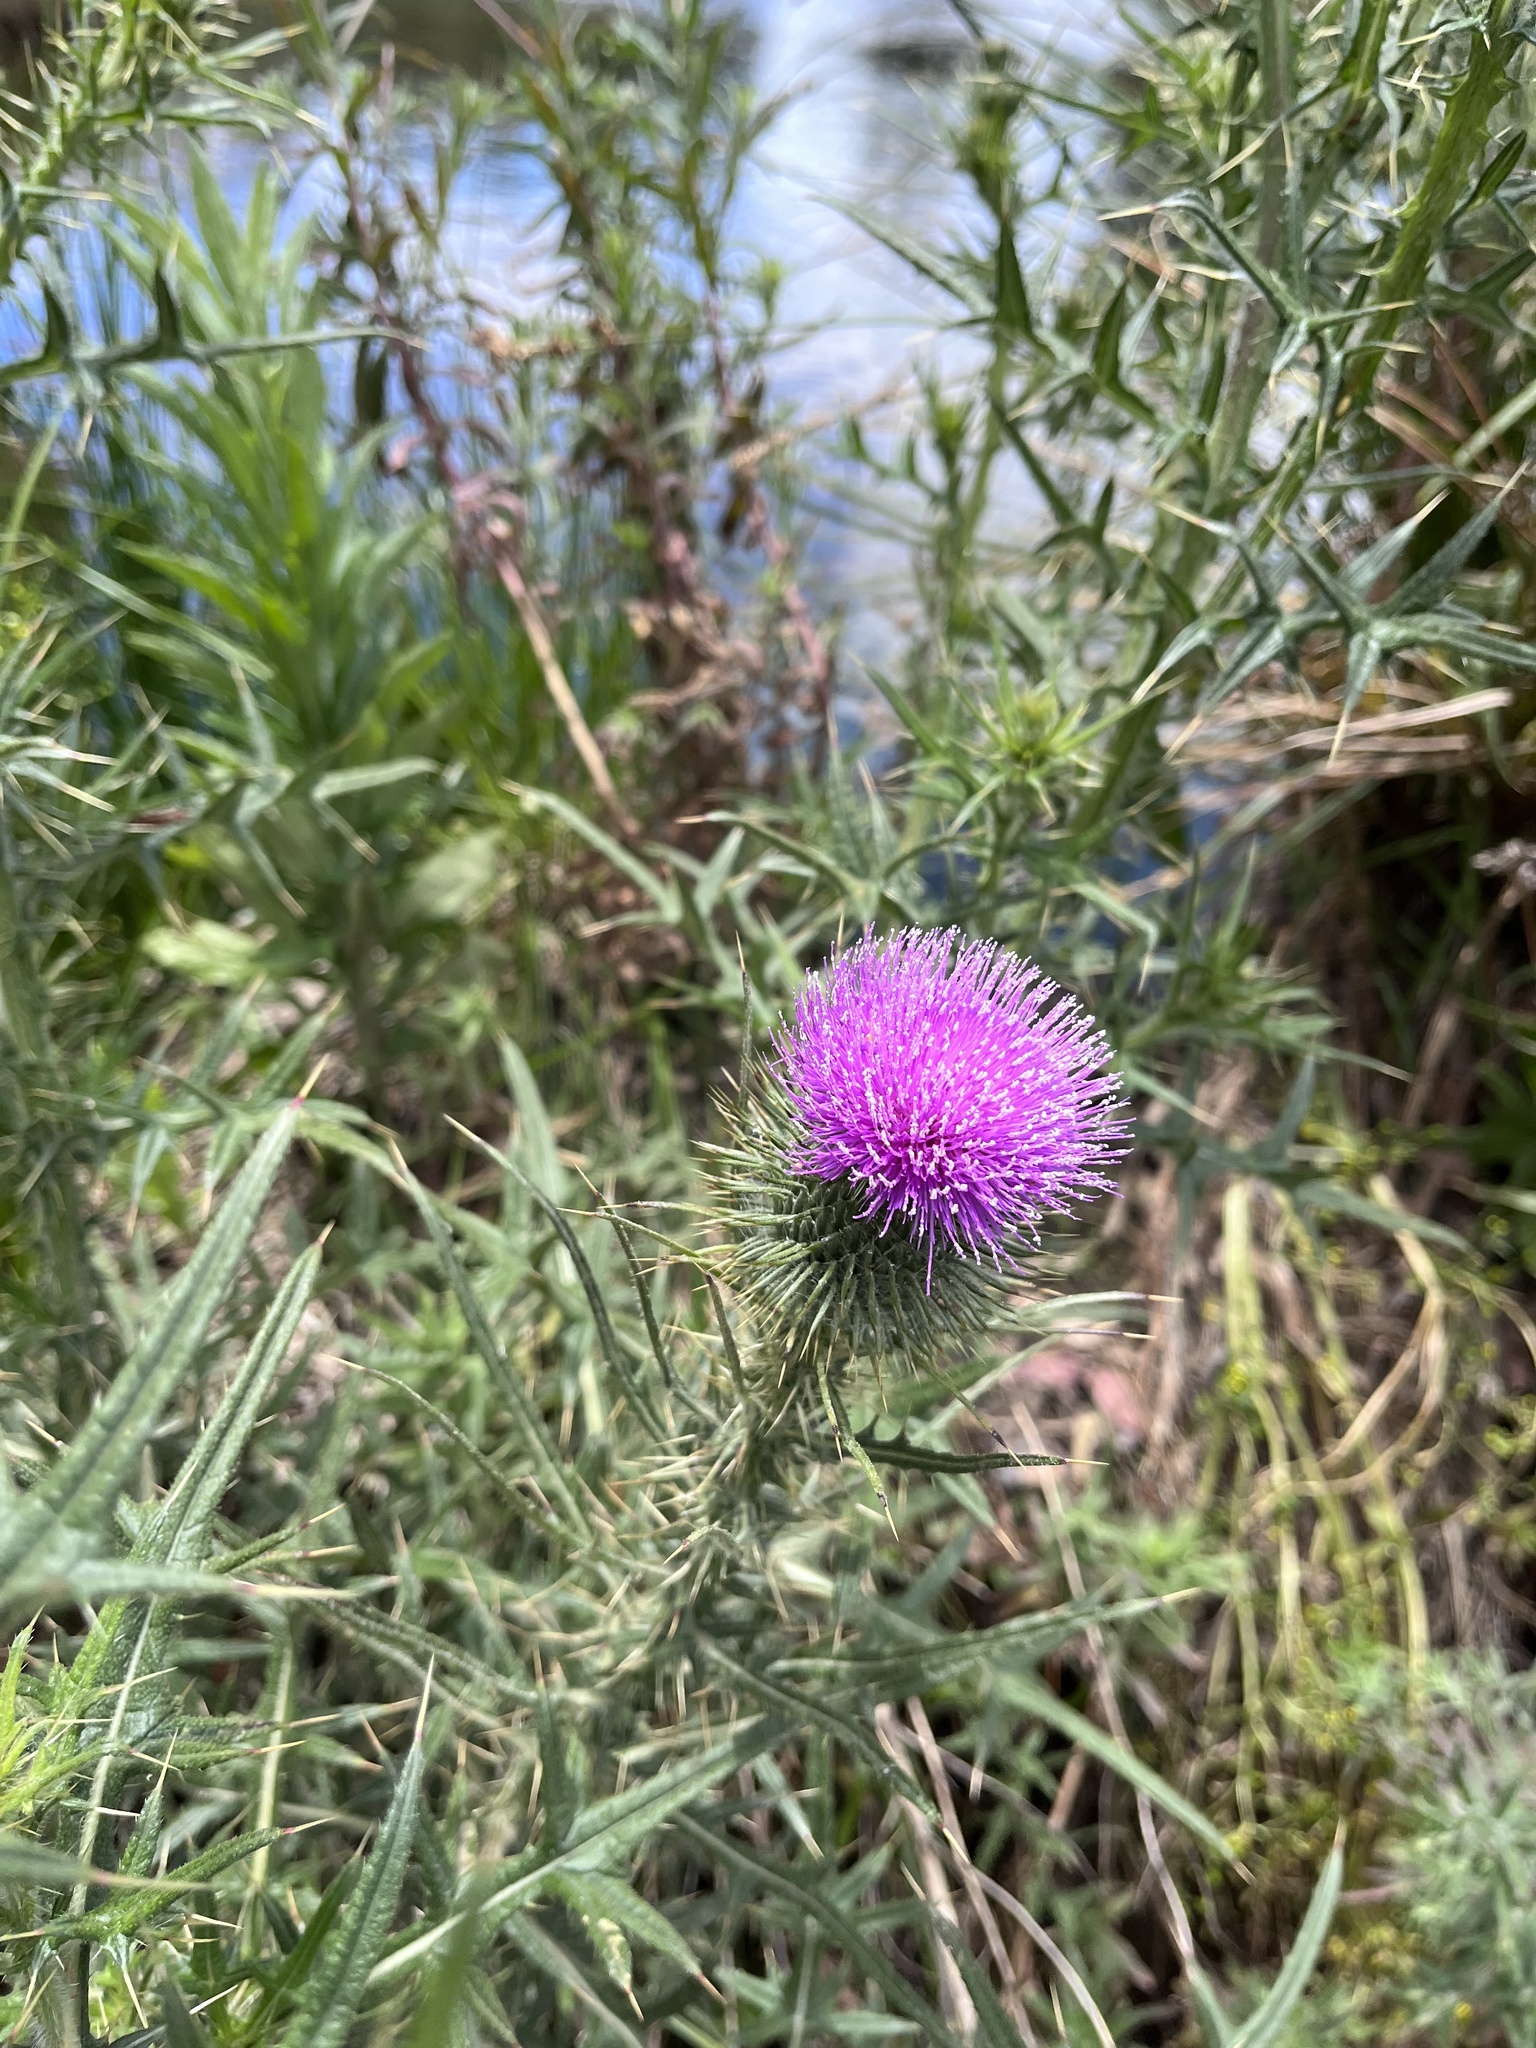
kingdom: Plantae
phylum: Tracheophyta
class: Magnoliopsida
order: Asterales
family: Asteraceae
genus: Cirsium
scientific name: Cirsium vulgare
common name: Bull thistle
